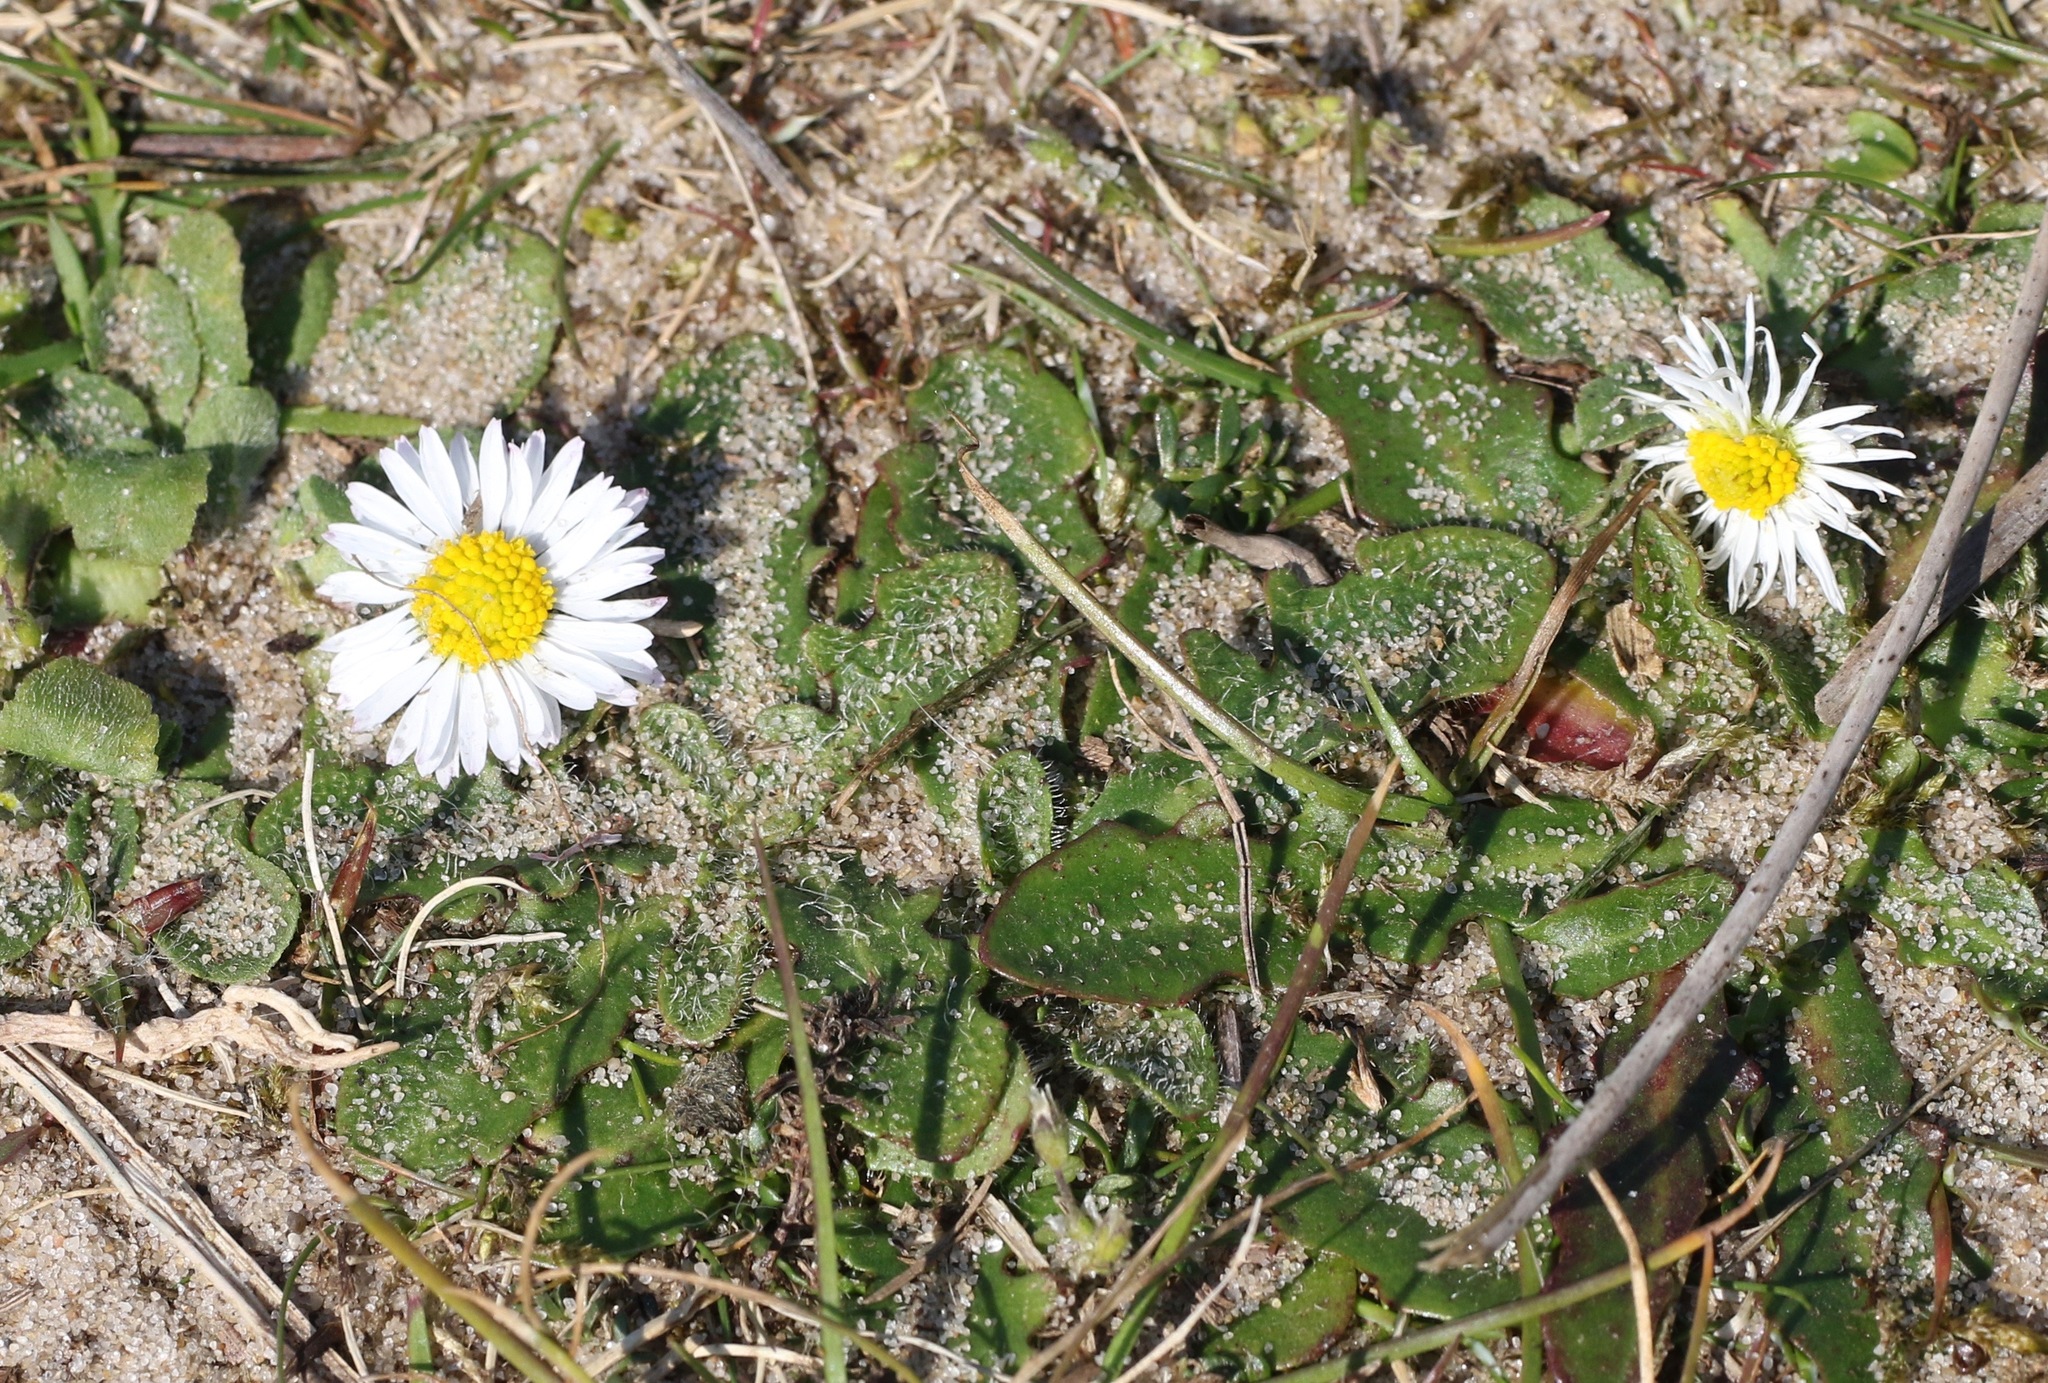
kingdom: Plantae
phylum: Tracheophyta
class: Magnoliopsida
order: Asterales
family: Asteraceae
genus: Bellis
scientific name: Bellis perennis
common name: Lawndaisy
